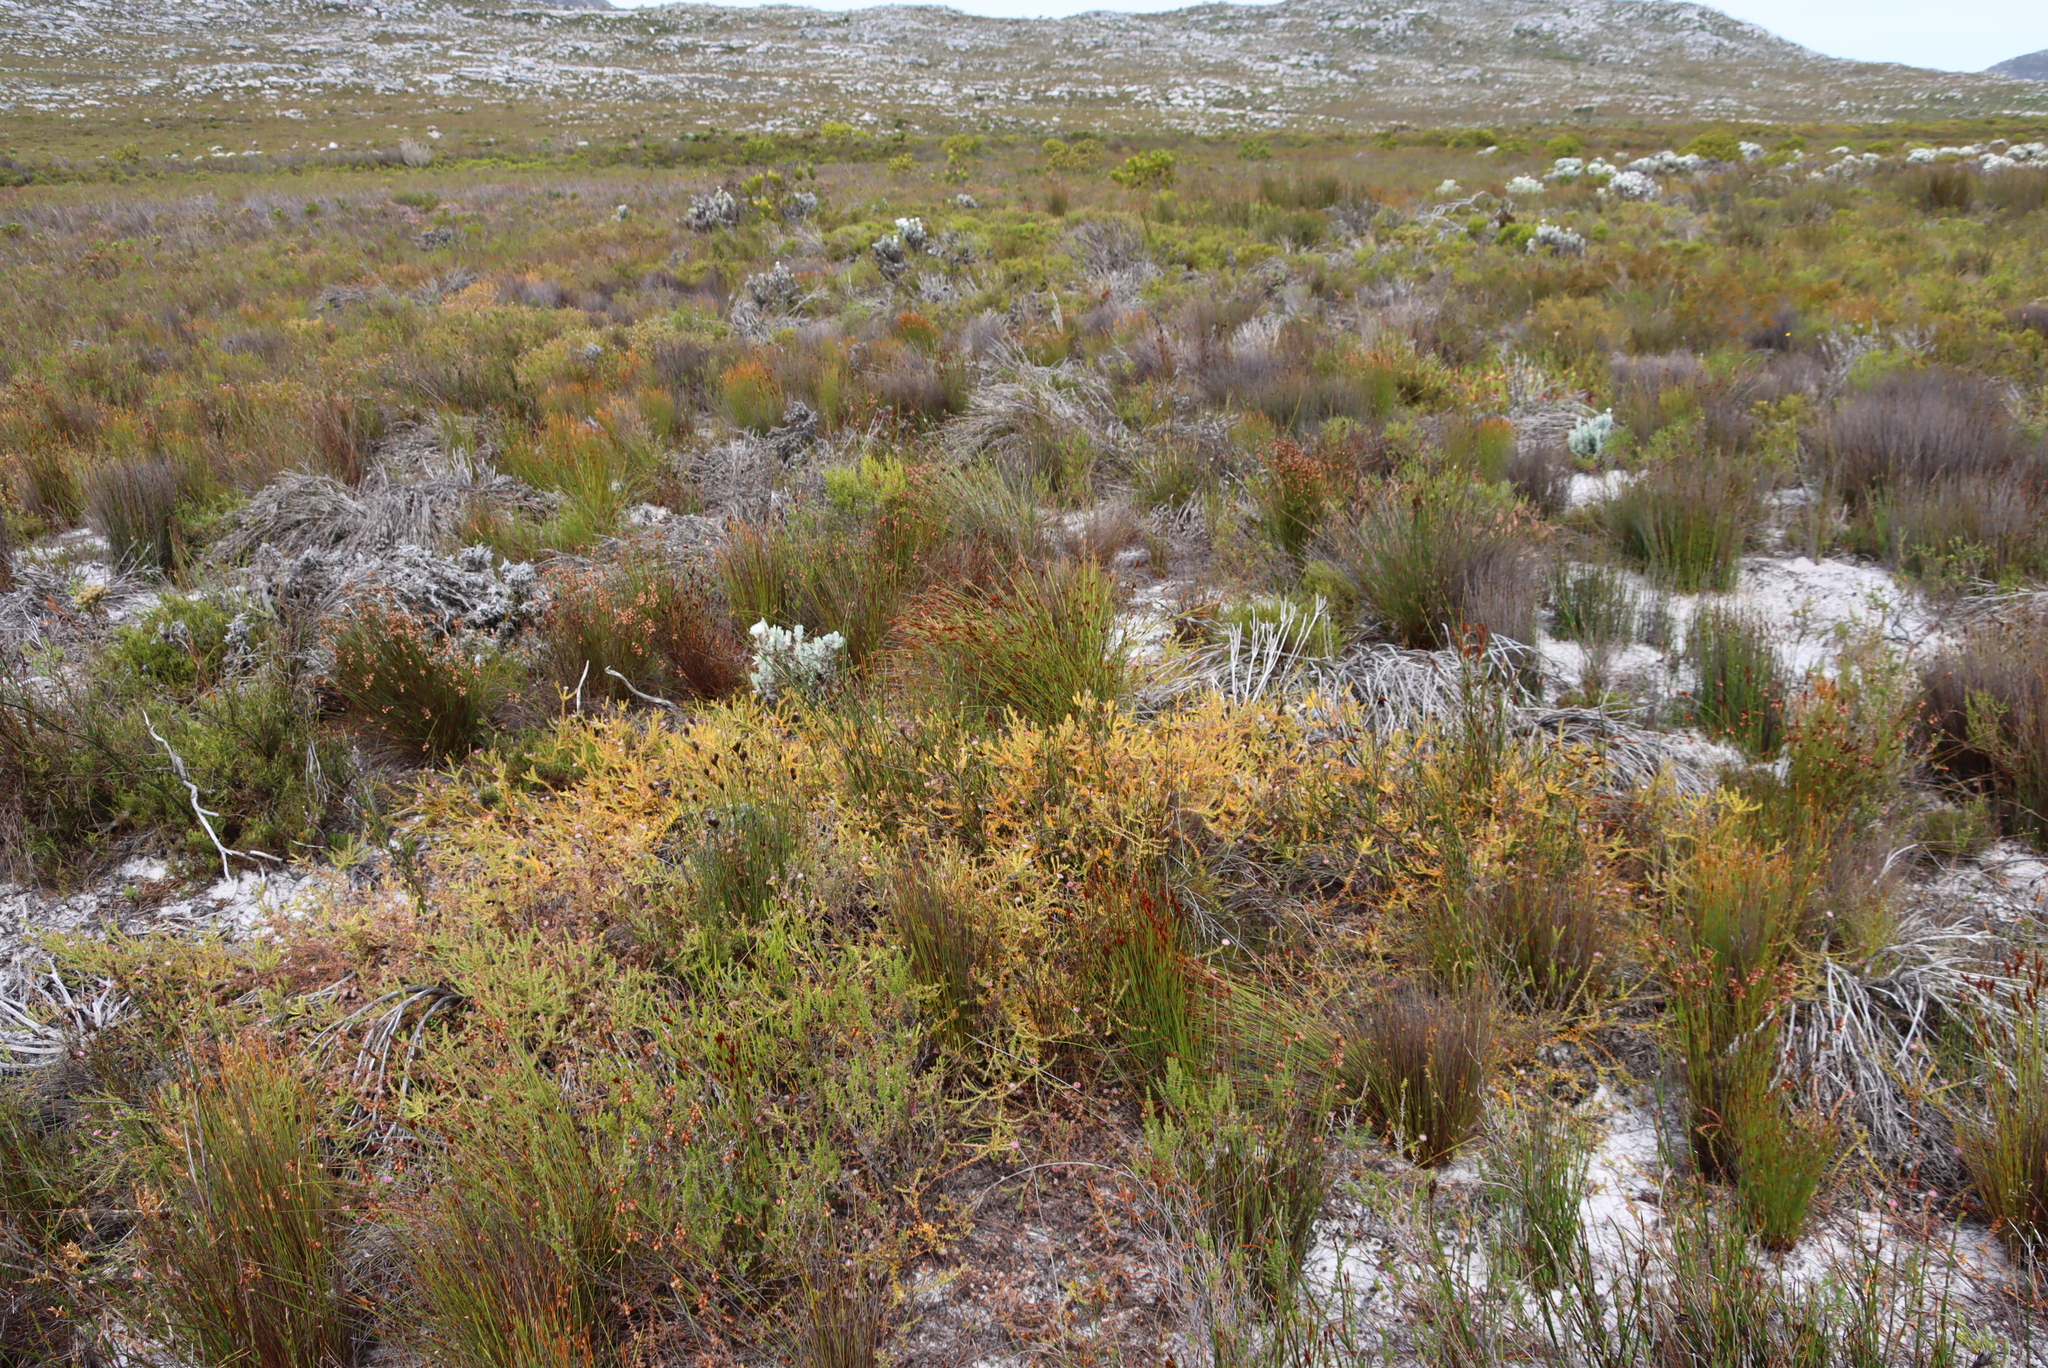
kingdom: Plantae
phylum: Tracheophyta
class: Magnoliopsida
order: Proteales
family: Proteaceae
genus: Diastella
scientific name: Diastella divaricata
